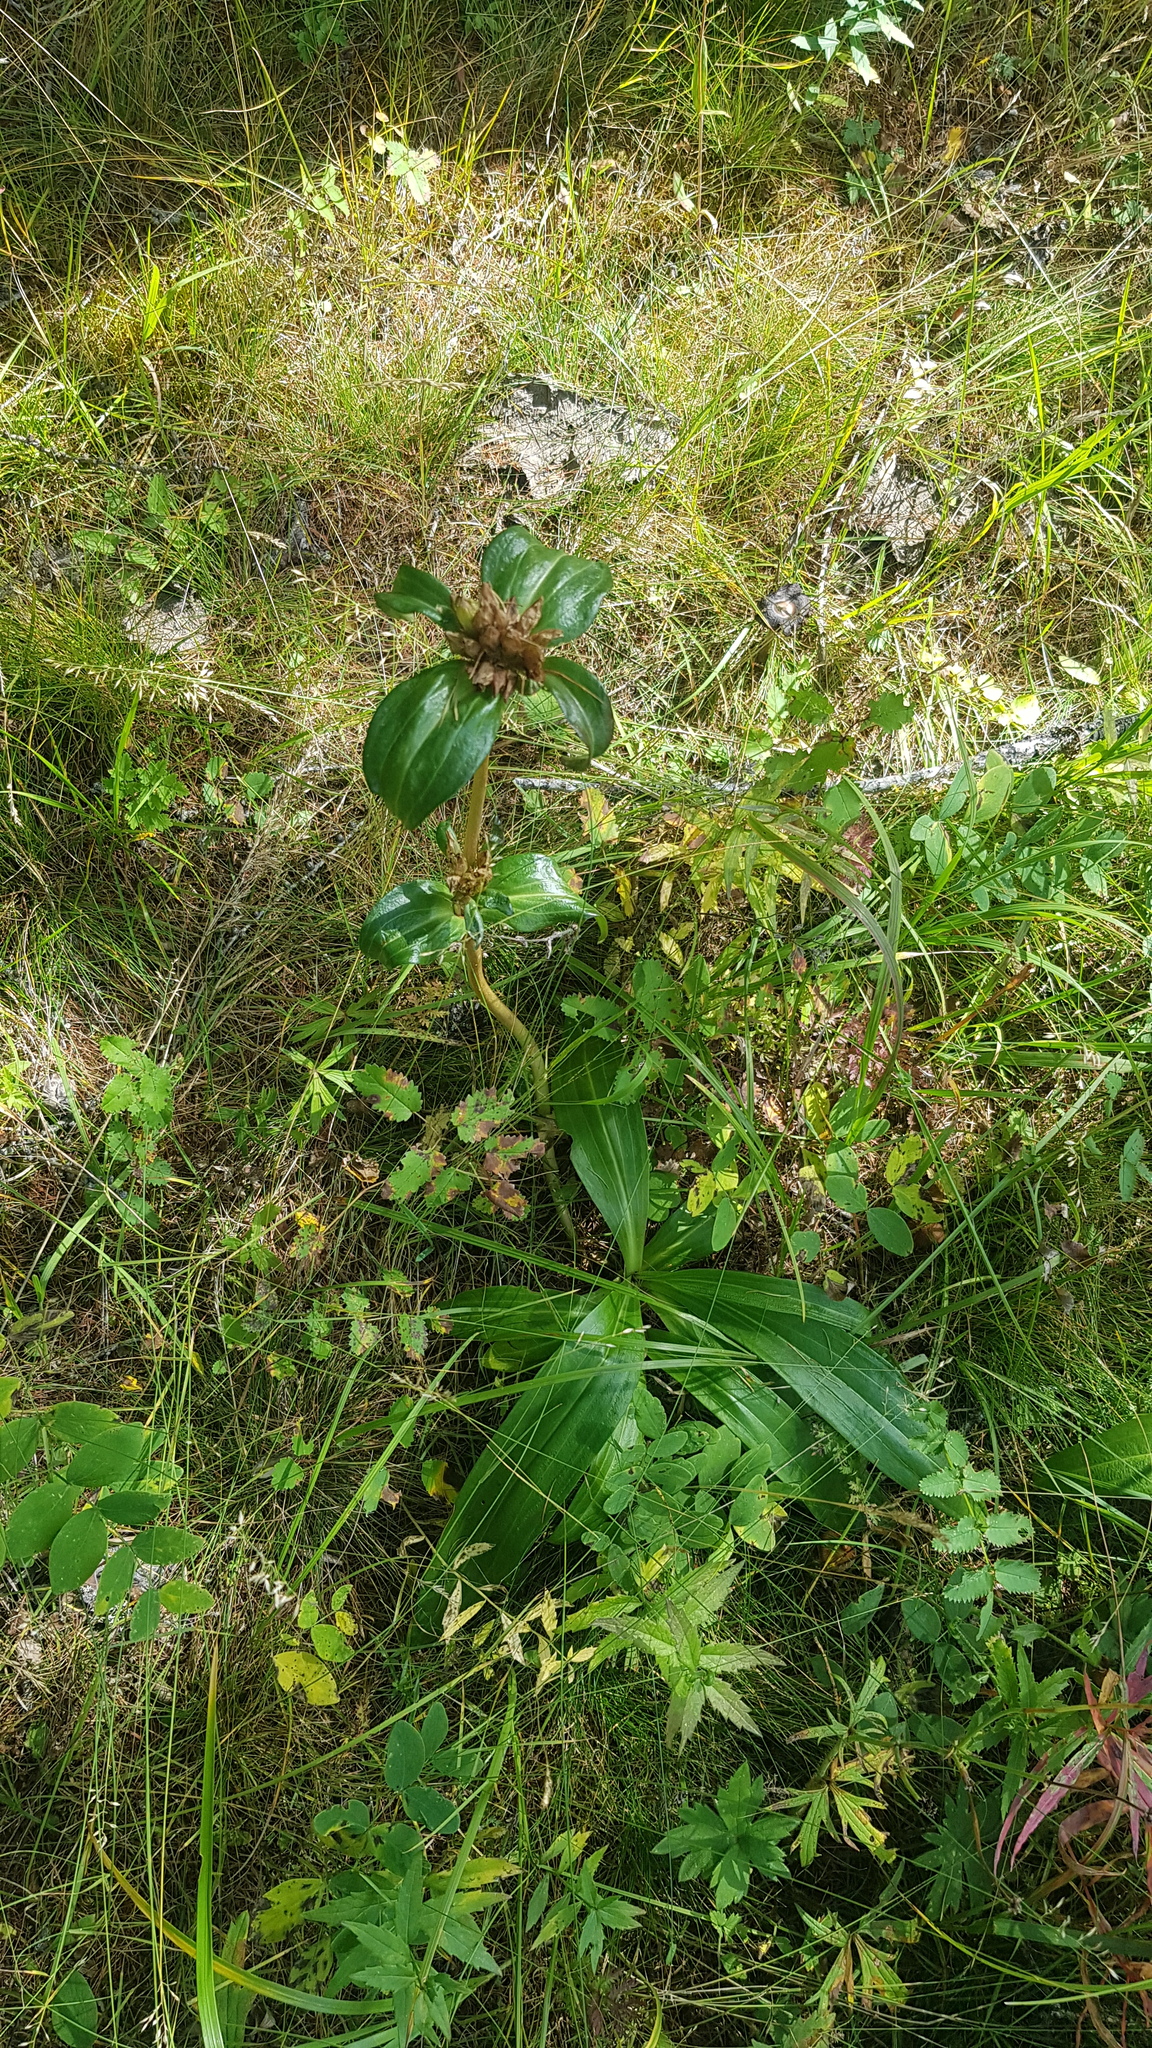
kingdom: Plantae
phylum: Tracheophyta
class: Magnoliopsida
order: Gentianales
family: Gentianaceae
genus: Gentiana
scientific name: Gentiana macrophylla
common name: Large-leaf gentian
